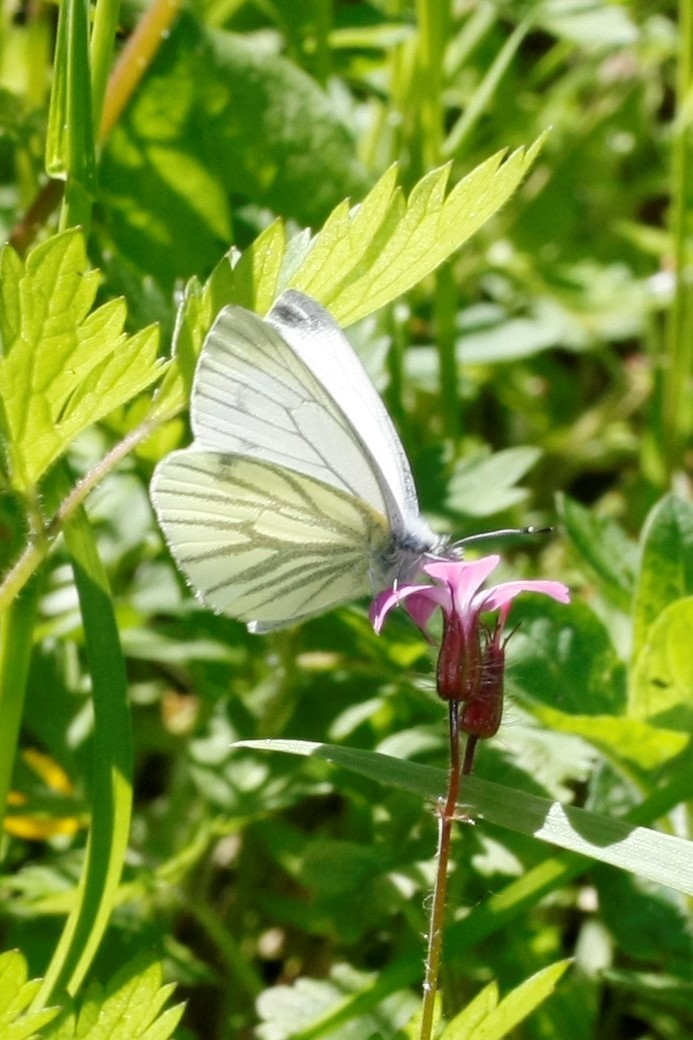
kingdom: Animalia
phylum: Arthropoda
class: Insecta
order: Lepidoptera
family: Pieridae
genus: Pieris
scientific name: Pieris napi
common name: Green-veined white
